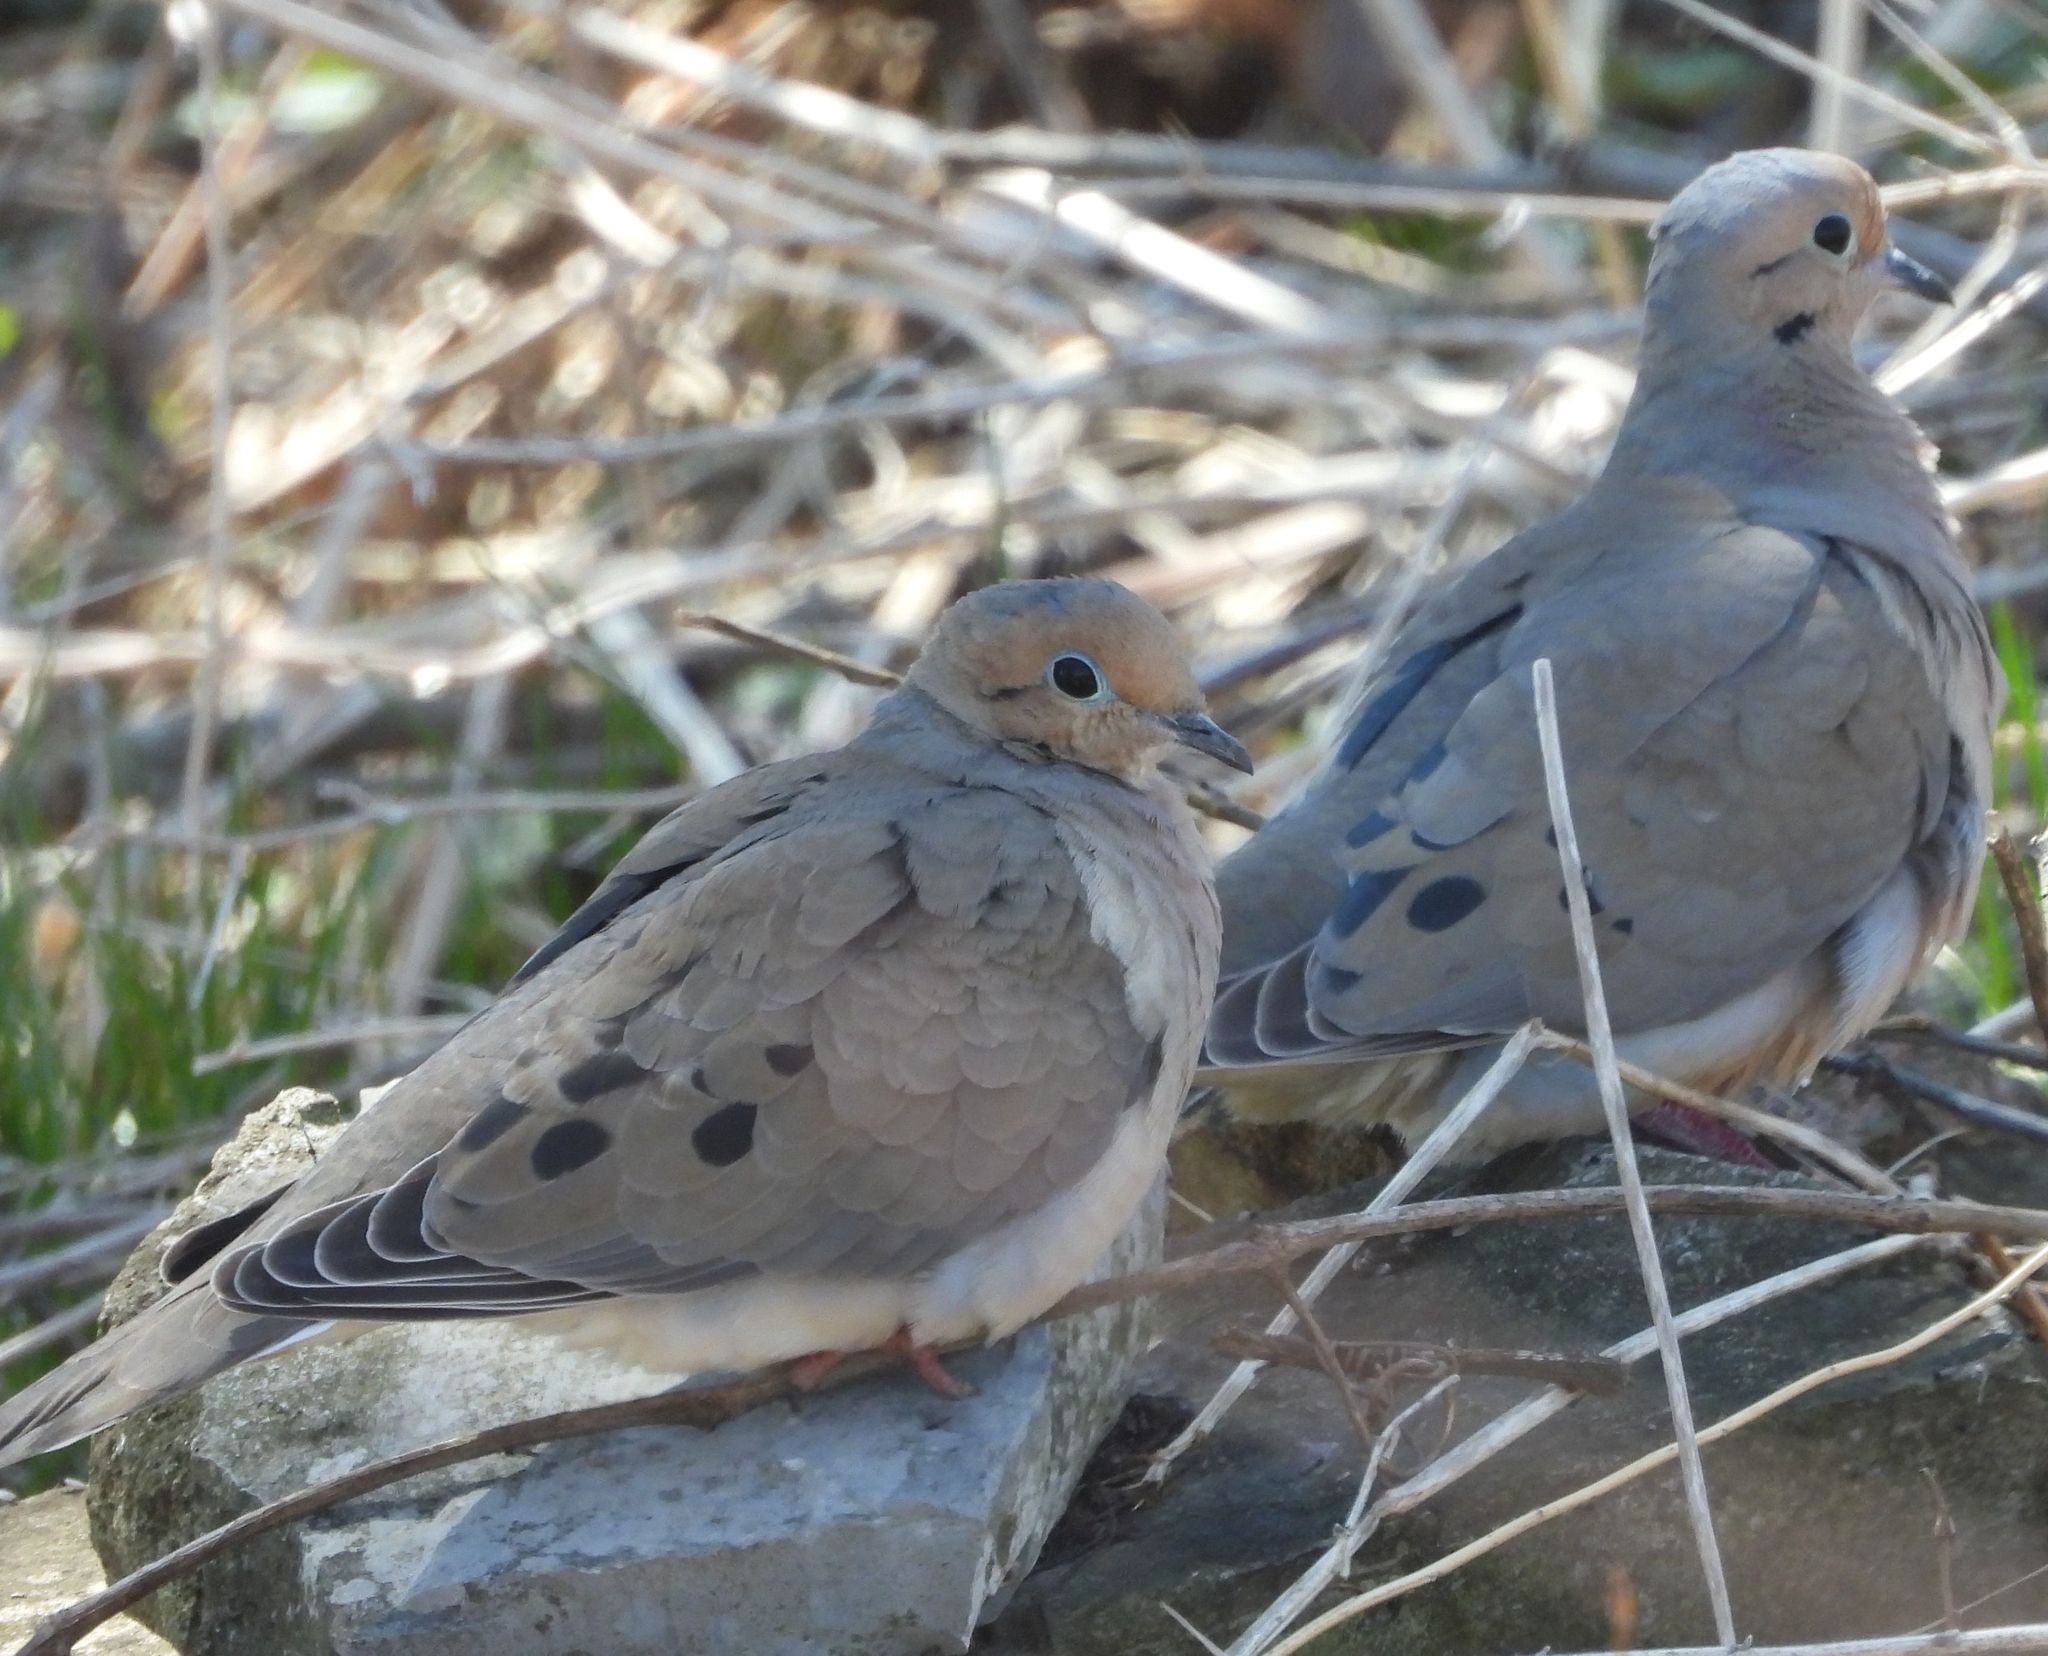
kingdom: Animalia
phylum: Chordata
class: Aves
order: Columbiformes
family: Columbidae
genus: Zenaida
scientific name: Zenaida macroura
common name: Mourning dove
